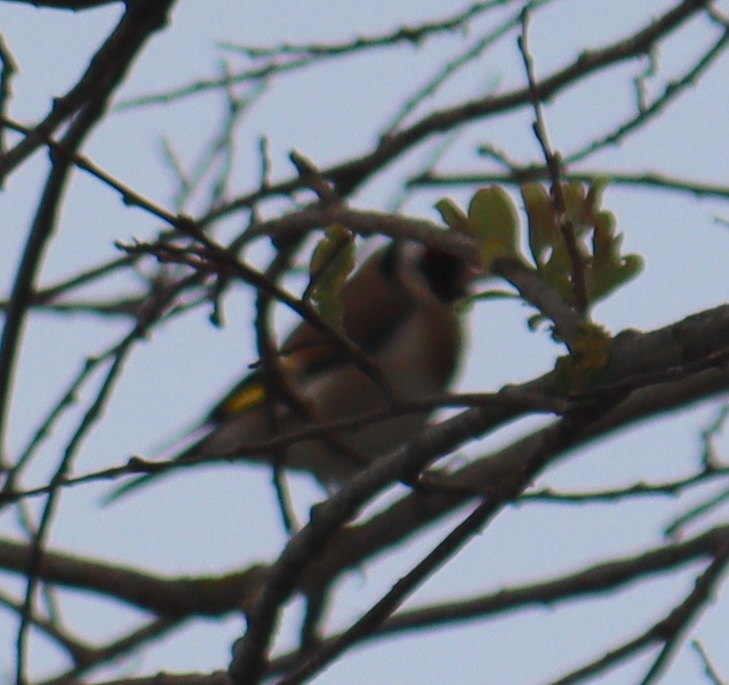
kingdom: Animalia
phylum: Chordata
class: Aves
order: Passeriformes
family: Fringillidae
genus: Carduelis
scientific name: Carduelis carduelis
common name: European goldfinch
